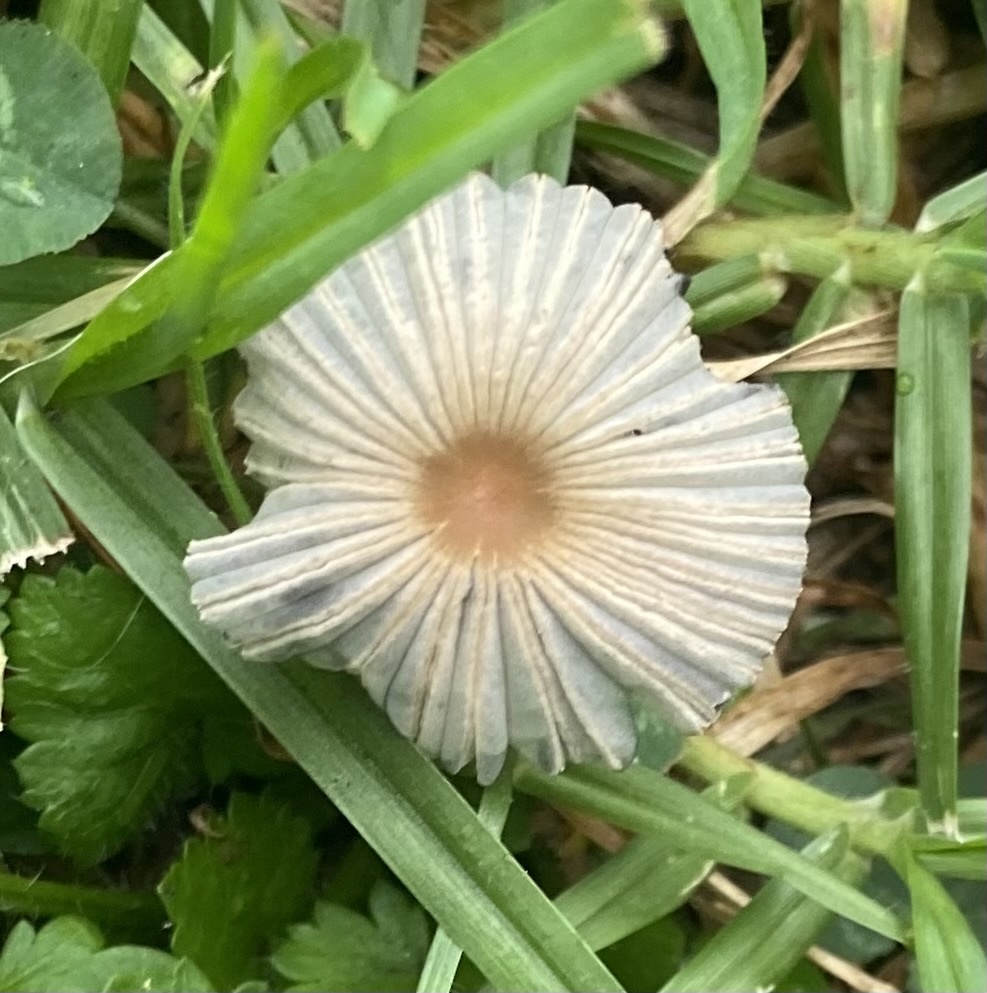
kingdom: Fungi
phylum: Basidiomycota
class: Agaricomycetes
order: Agaricales
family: Psathyrellaceae
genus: Parasola
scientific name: Parasola plicatilis
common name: Pleated inkcap
